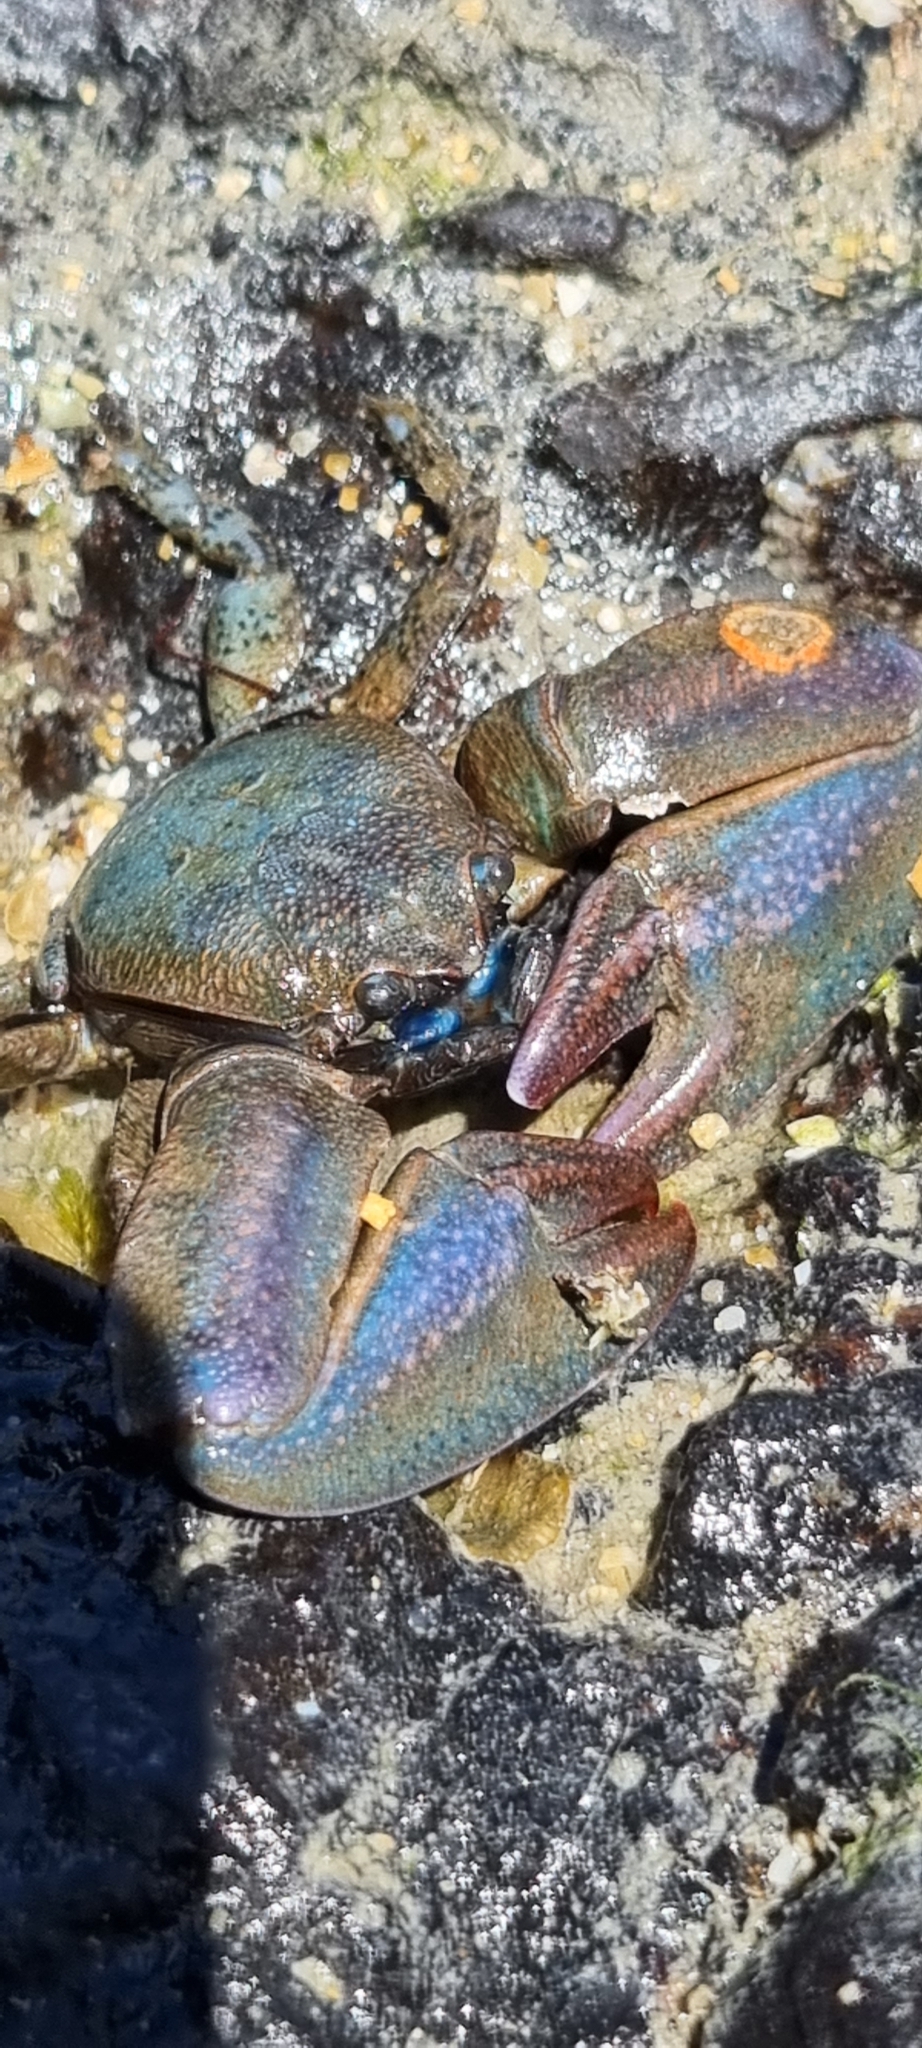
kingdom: Animalia
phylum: Arthropoda
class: Malacostraca
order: Decapoda
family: Porcellanidae
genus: Petrolisthes
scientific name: Petrolisthes elongatus
